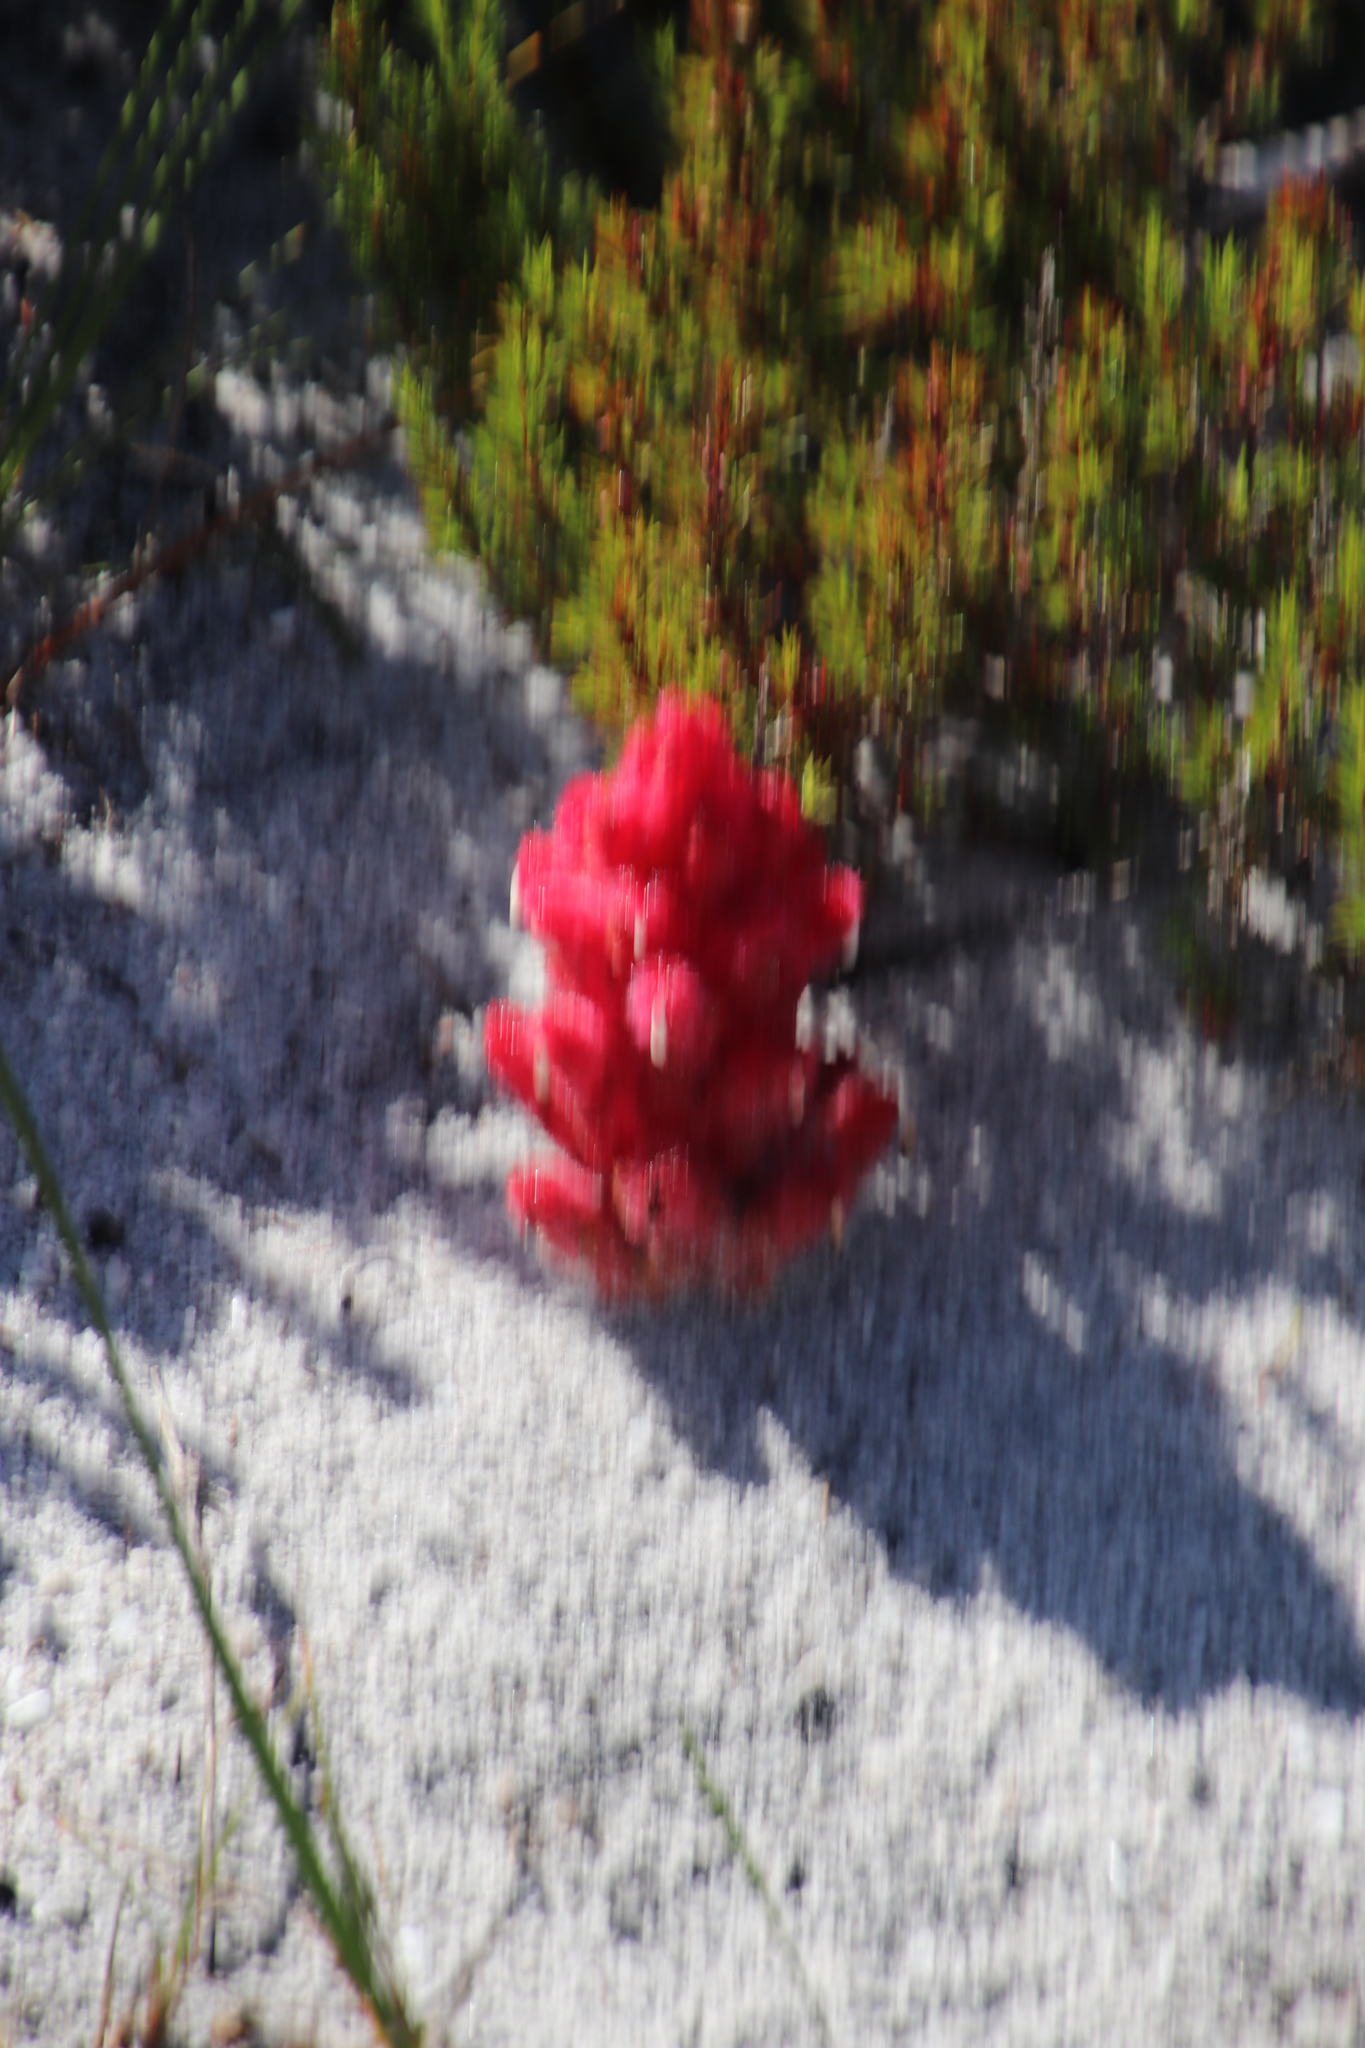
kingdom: Plantae
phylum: Tracheophyta
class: Magnoliopsida
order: Lamiales
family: Orobanchaceae
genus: Hyobanche
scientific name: Hyobanche sanguinea
